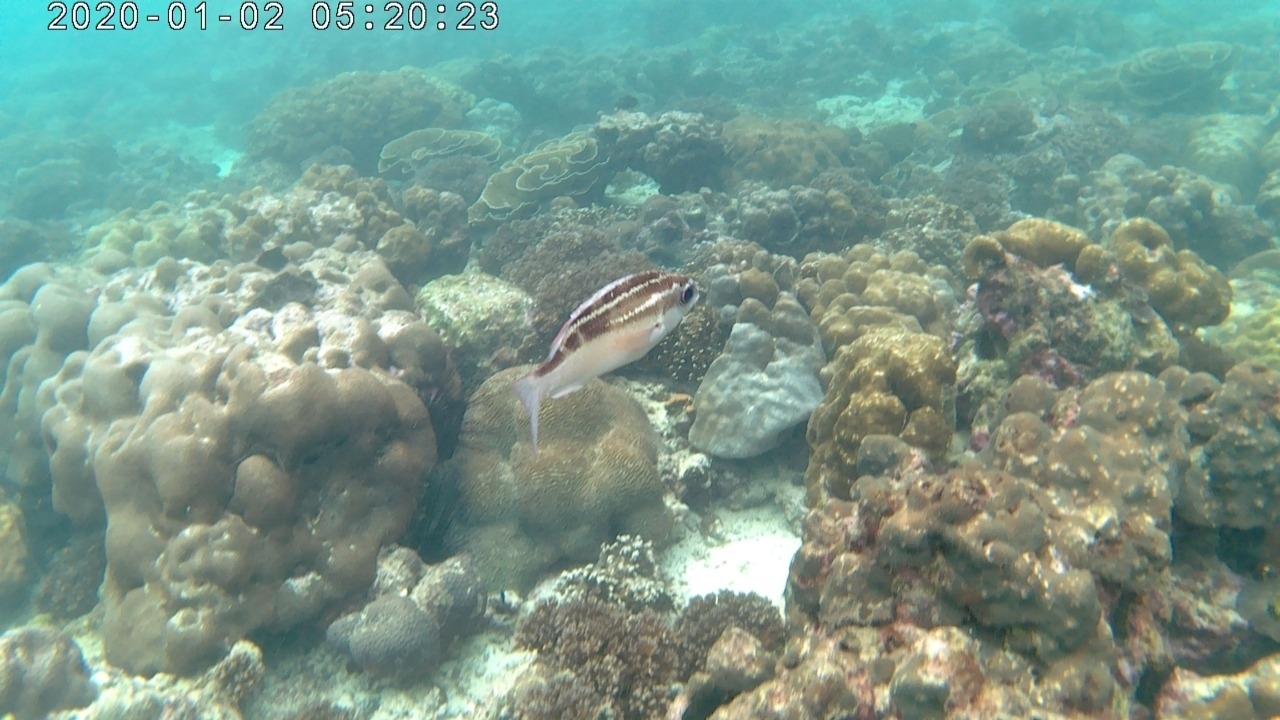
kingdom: Animalia
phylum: Chordata
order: Perciformes
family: Nemipteridae
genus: Scolopsis
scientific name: Scolopsis lineata
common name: Striped monocle bream
